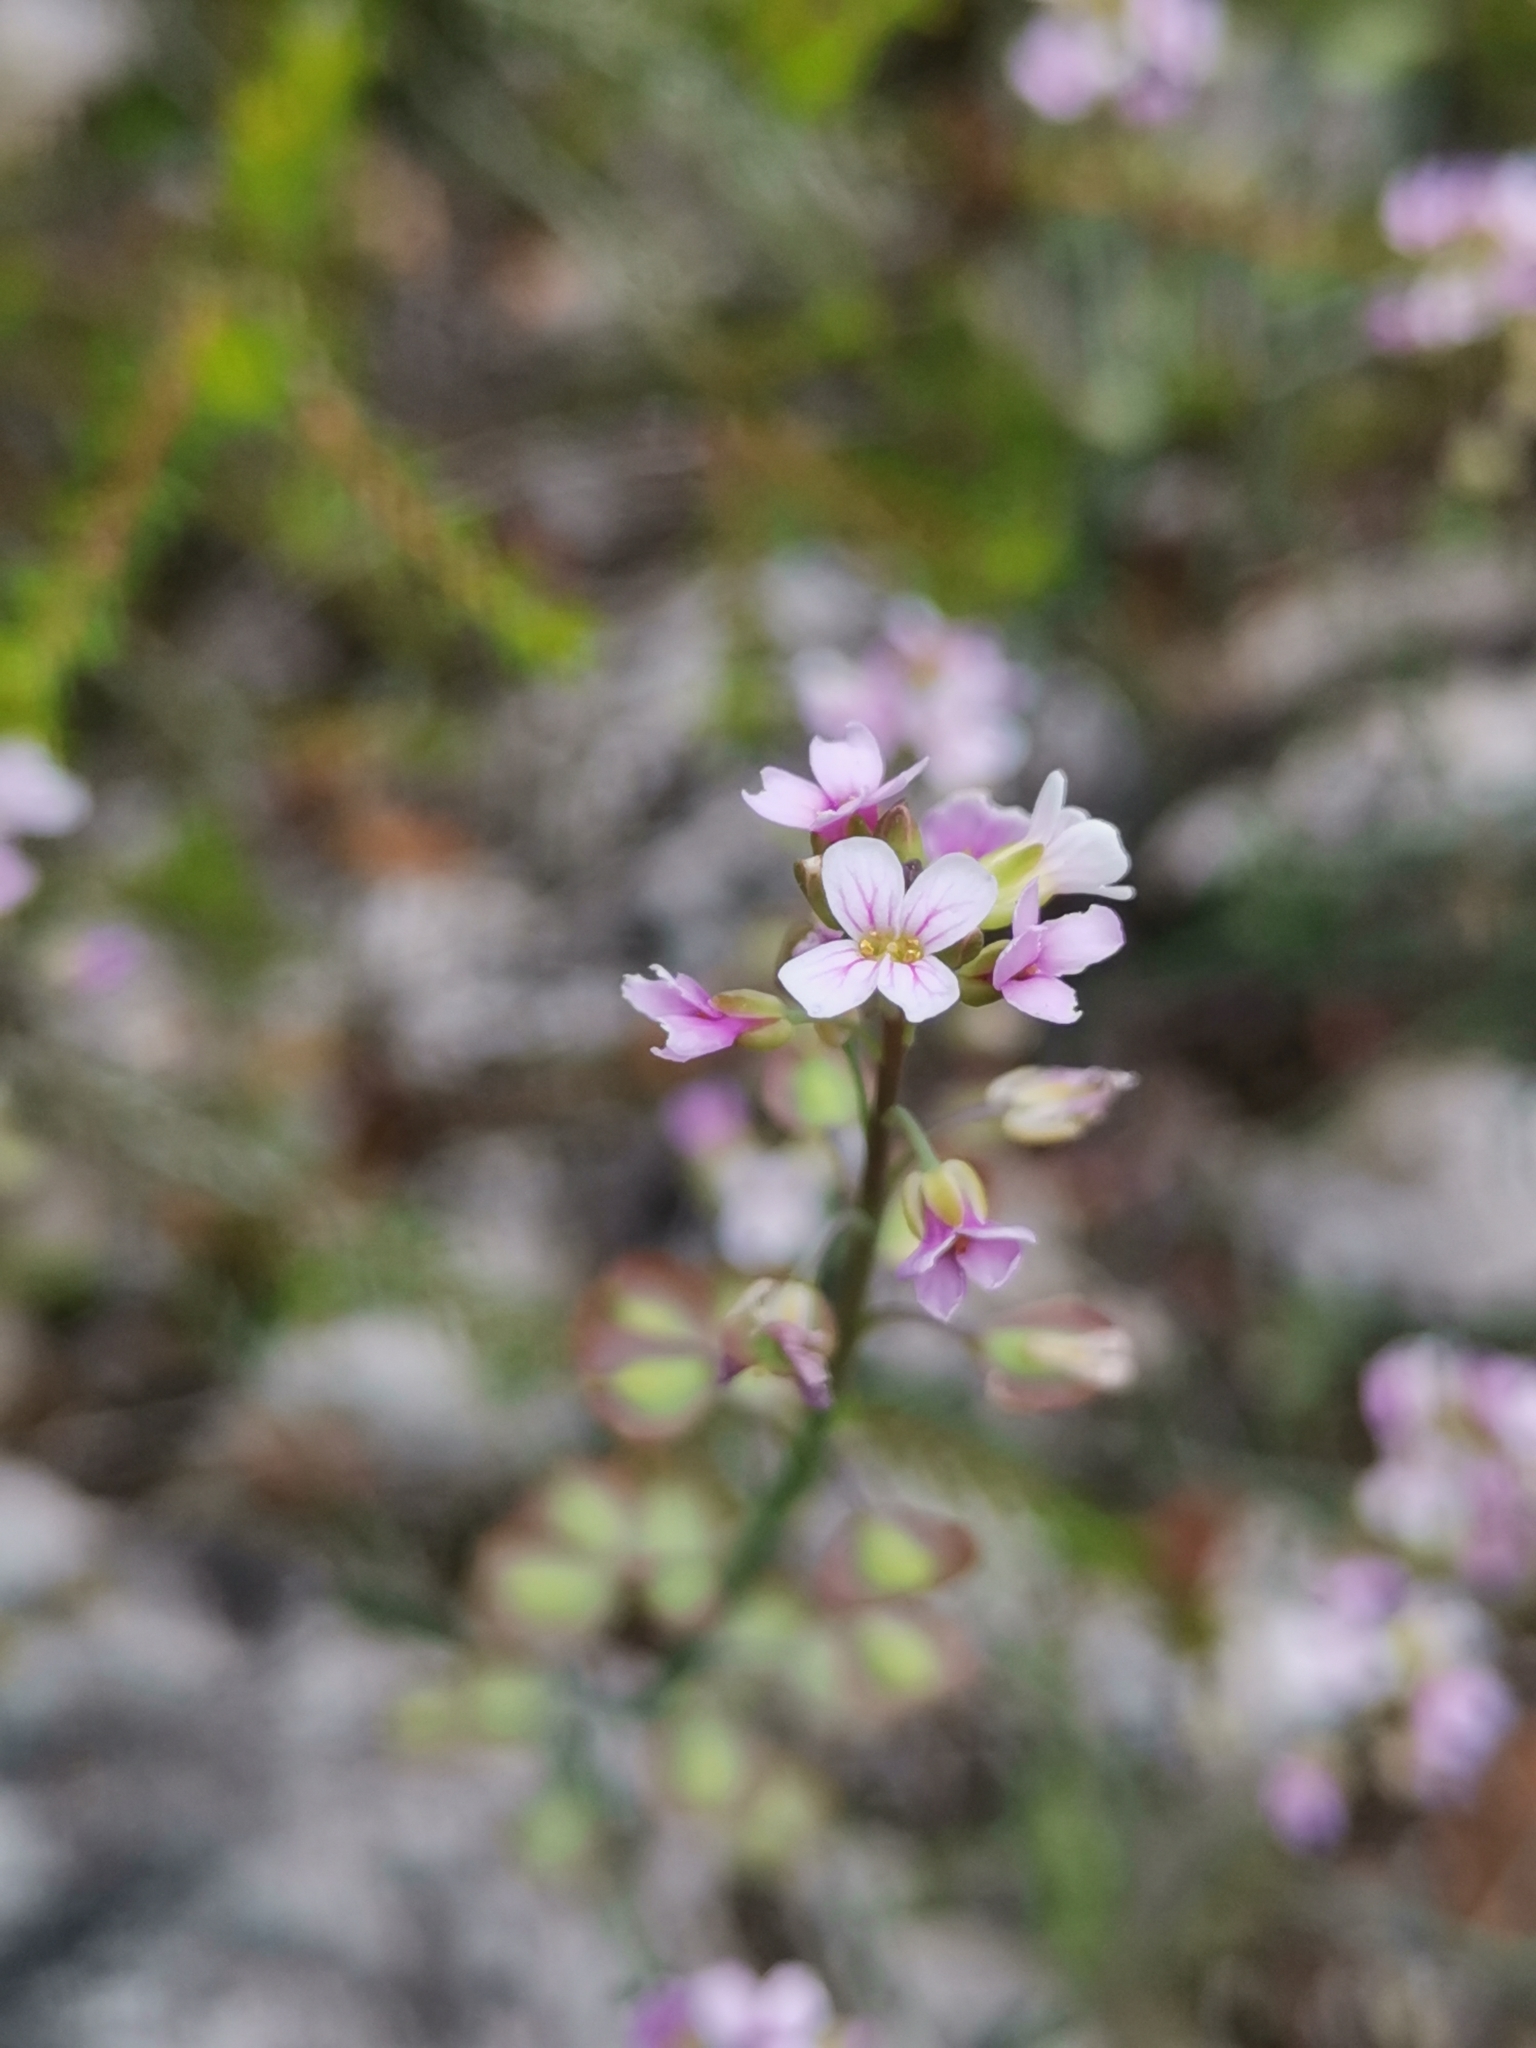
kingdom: Plantae
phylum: Tracheophyta
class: Magnoliopsida
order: Brassicales
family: Brassicaceae
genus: Aethionema
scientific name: Aethionema saxatile
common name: Burnt candytuft
